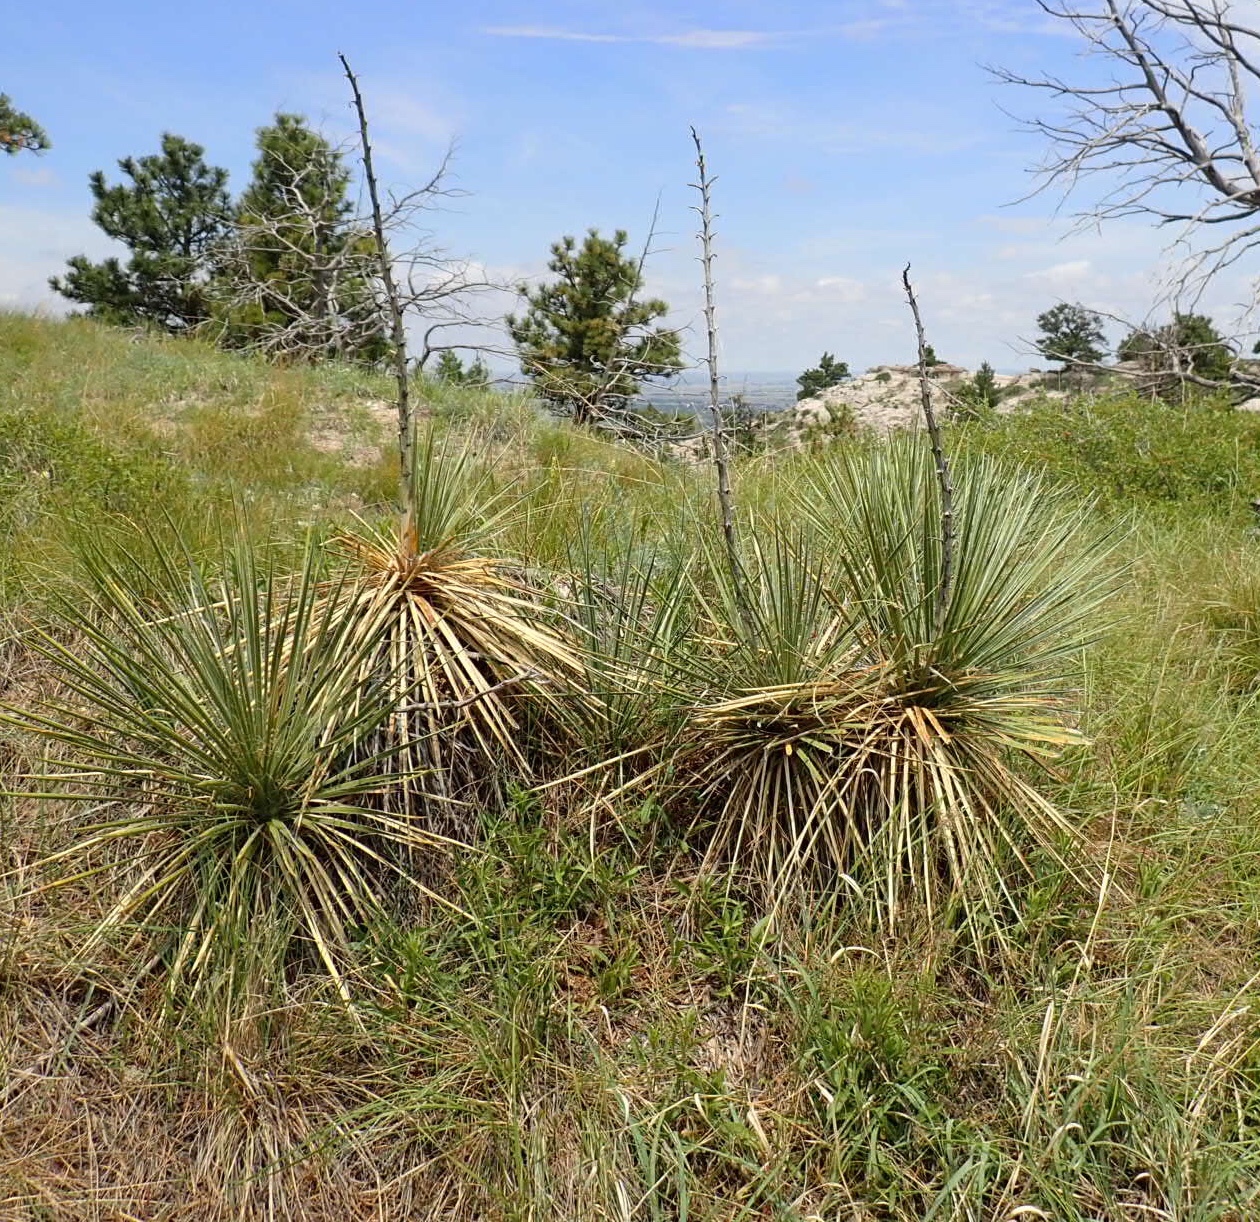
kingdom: Plantae
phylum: Tracheophyta
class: Liliopsida
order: Asparagales
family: Asparagaceae
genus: Yucca
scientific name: Yucca glauca
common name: Great plains yucca
